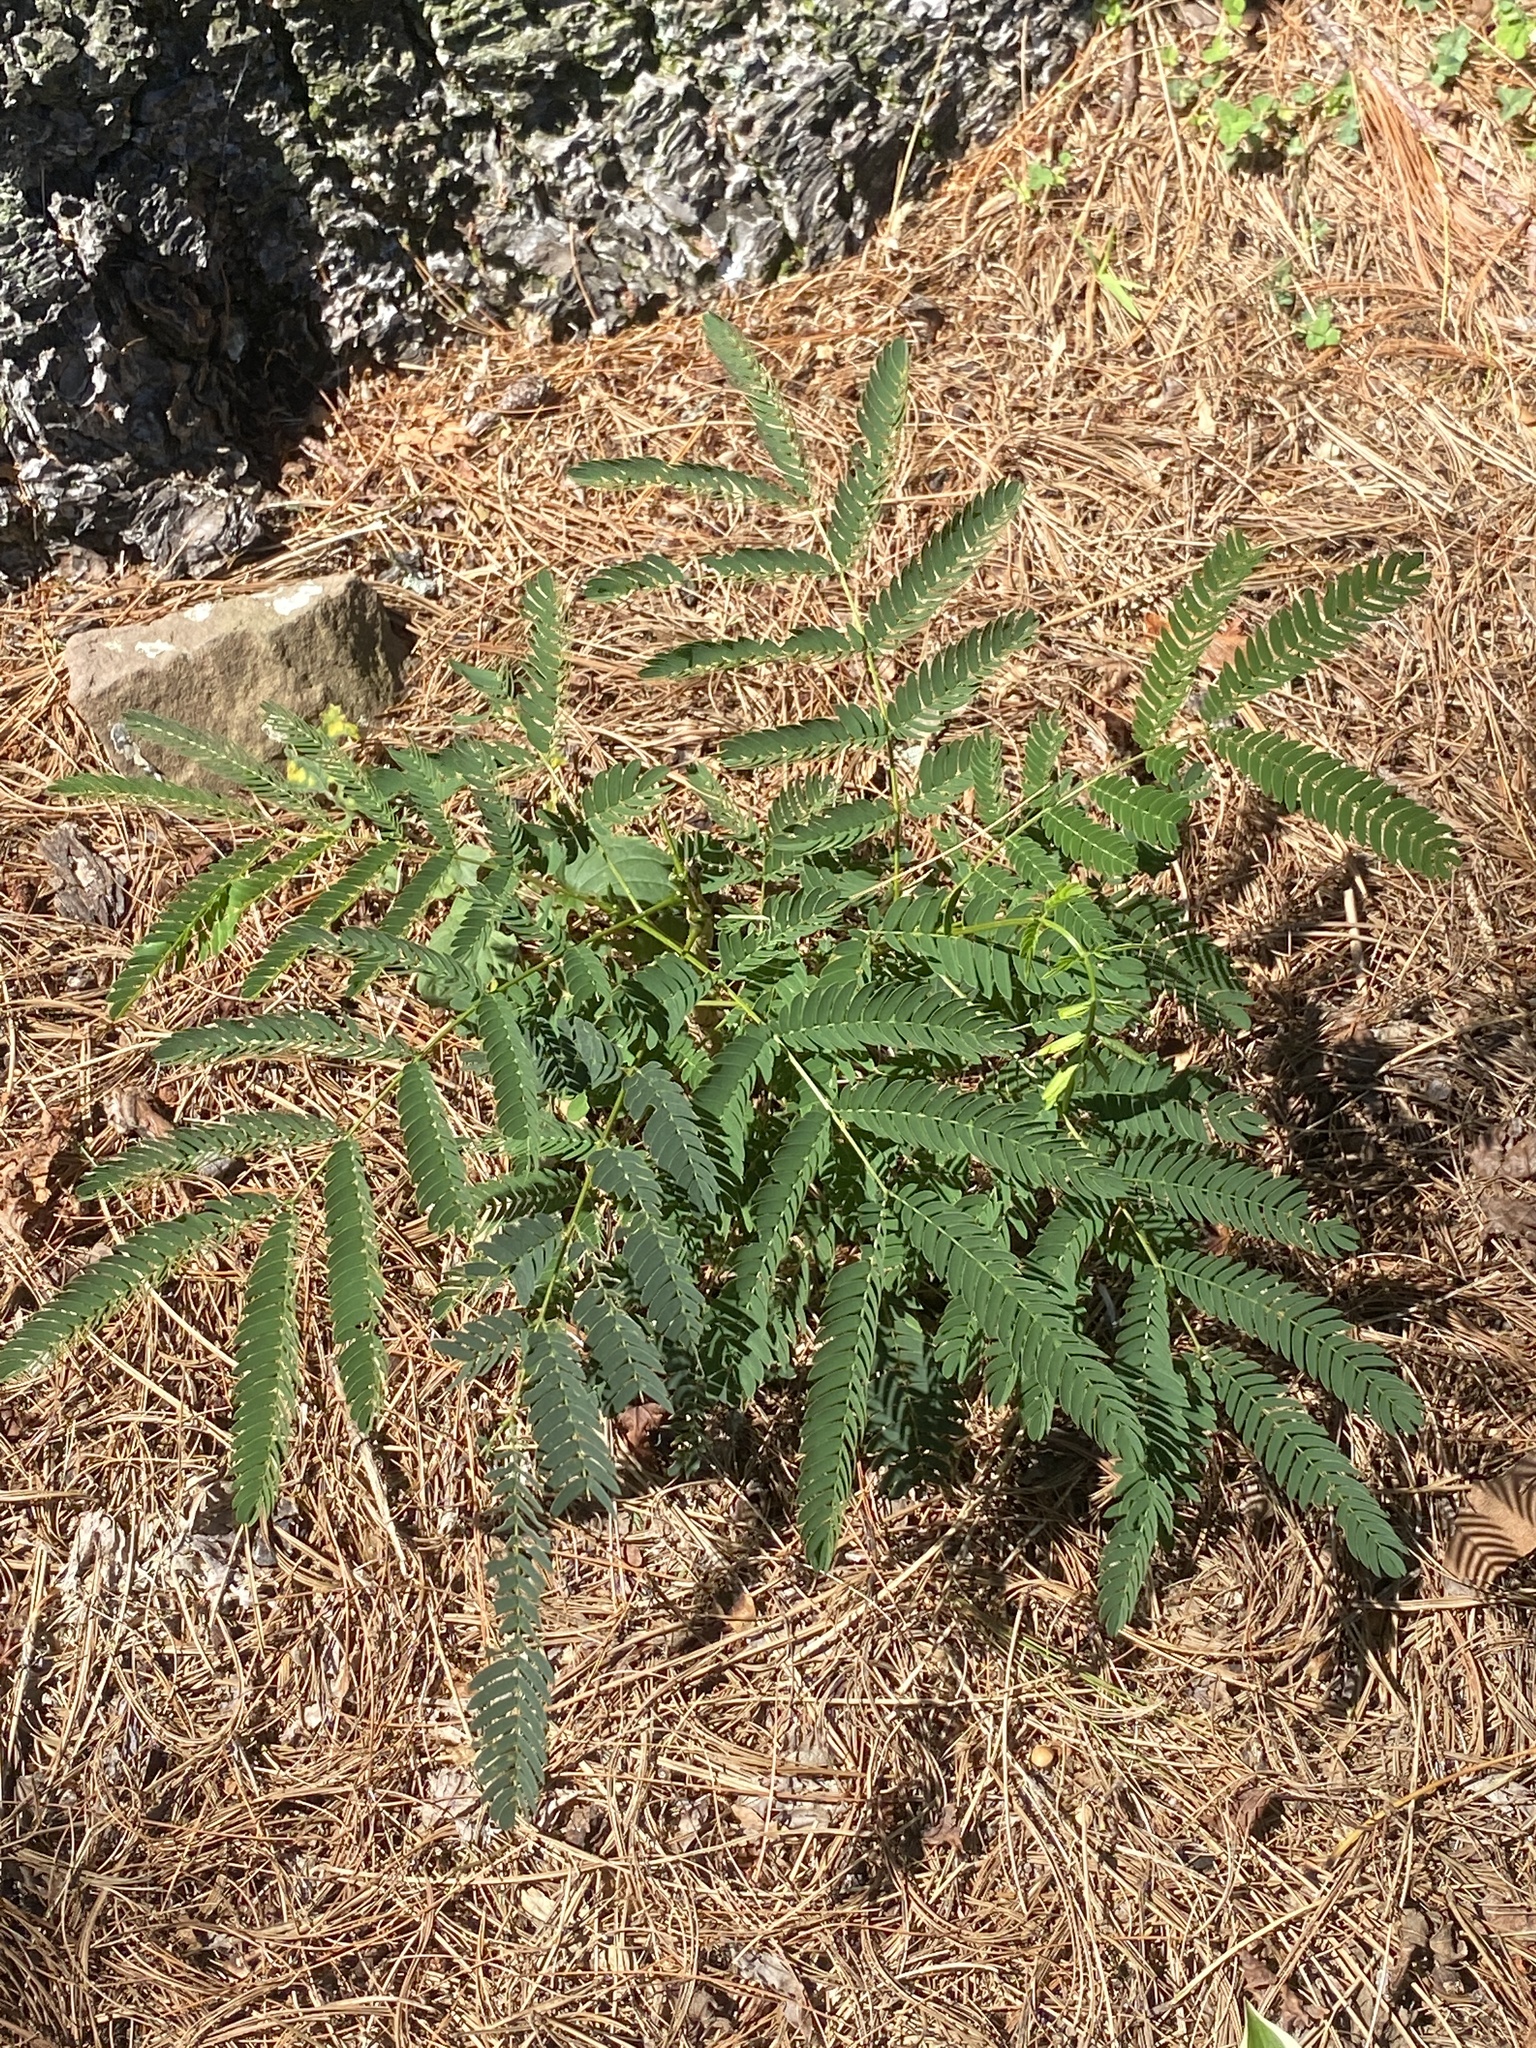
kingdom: Plantae
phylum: Tracheophyta
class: Magnoliopsida
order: Fabales
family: Fabaceae
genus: Albizia
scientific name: Albizia julibrissin
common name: Silktree
